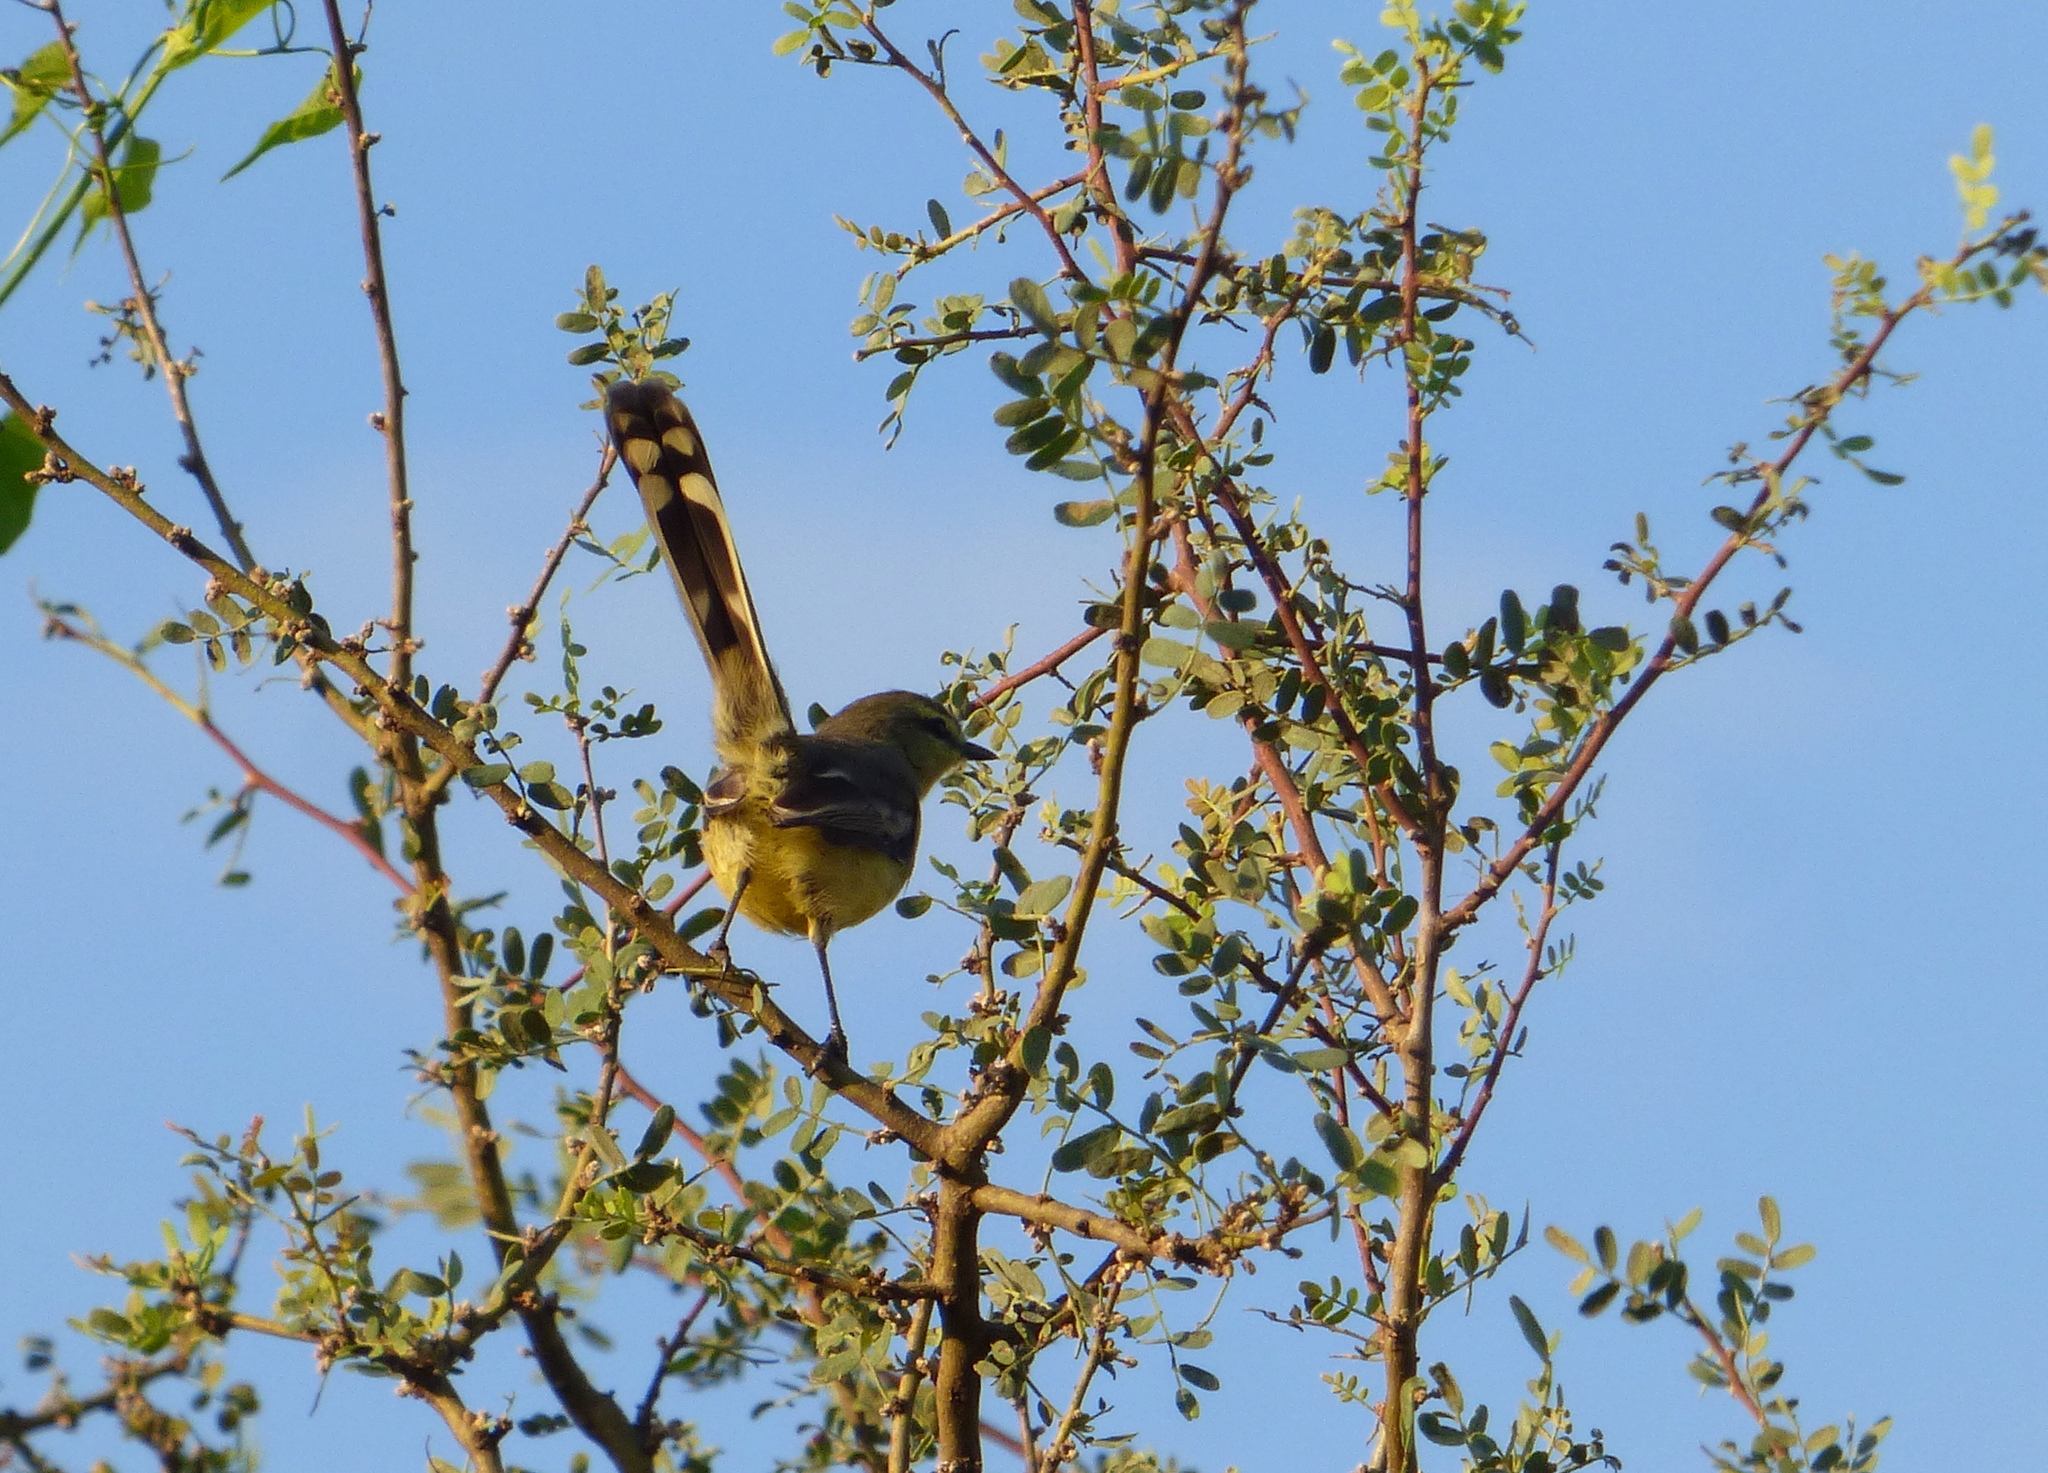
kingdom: Animalia
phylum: Chordata
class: Aves
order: Passeriformes
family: Tyrannidae
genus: Stigmatura
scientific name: Stigmatura budytoides
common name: Greater wagtail-tyrant
